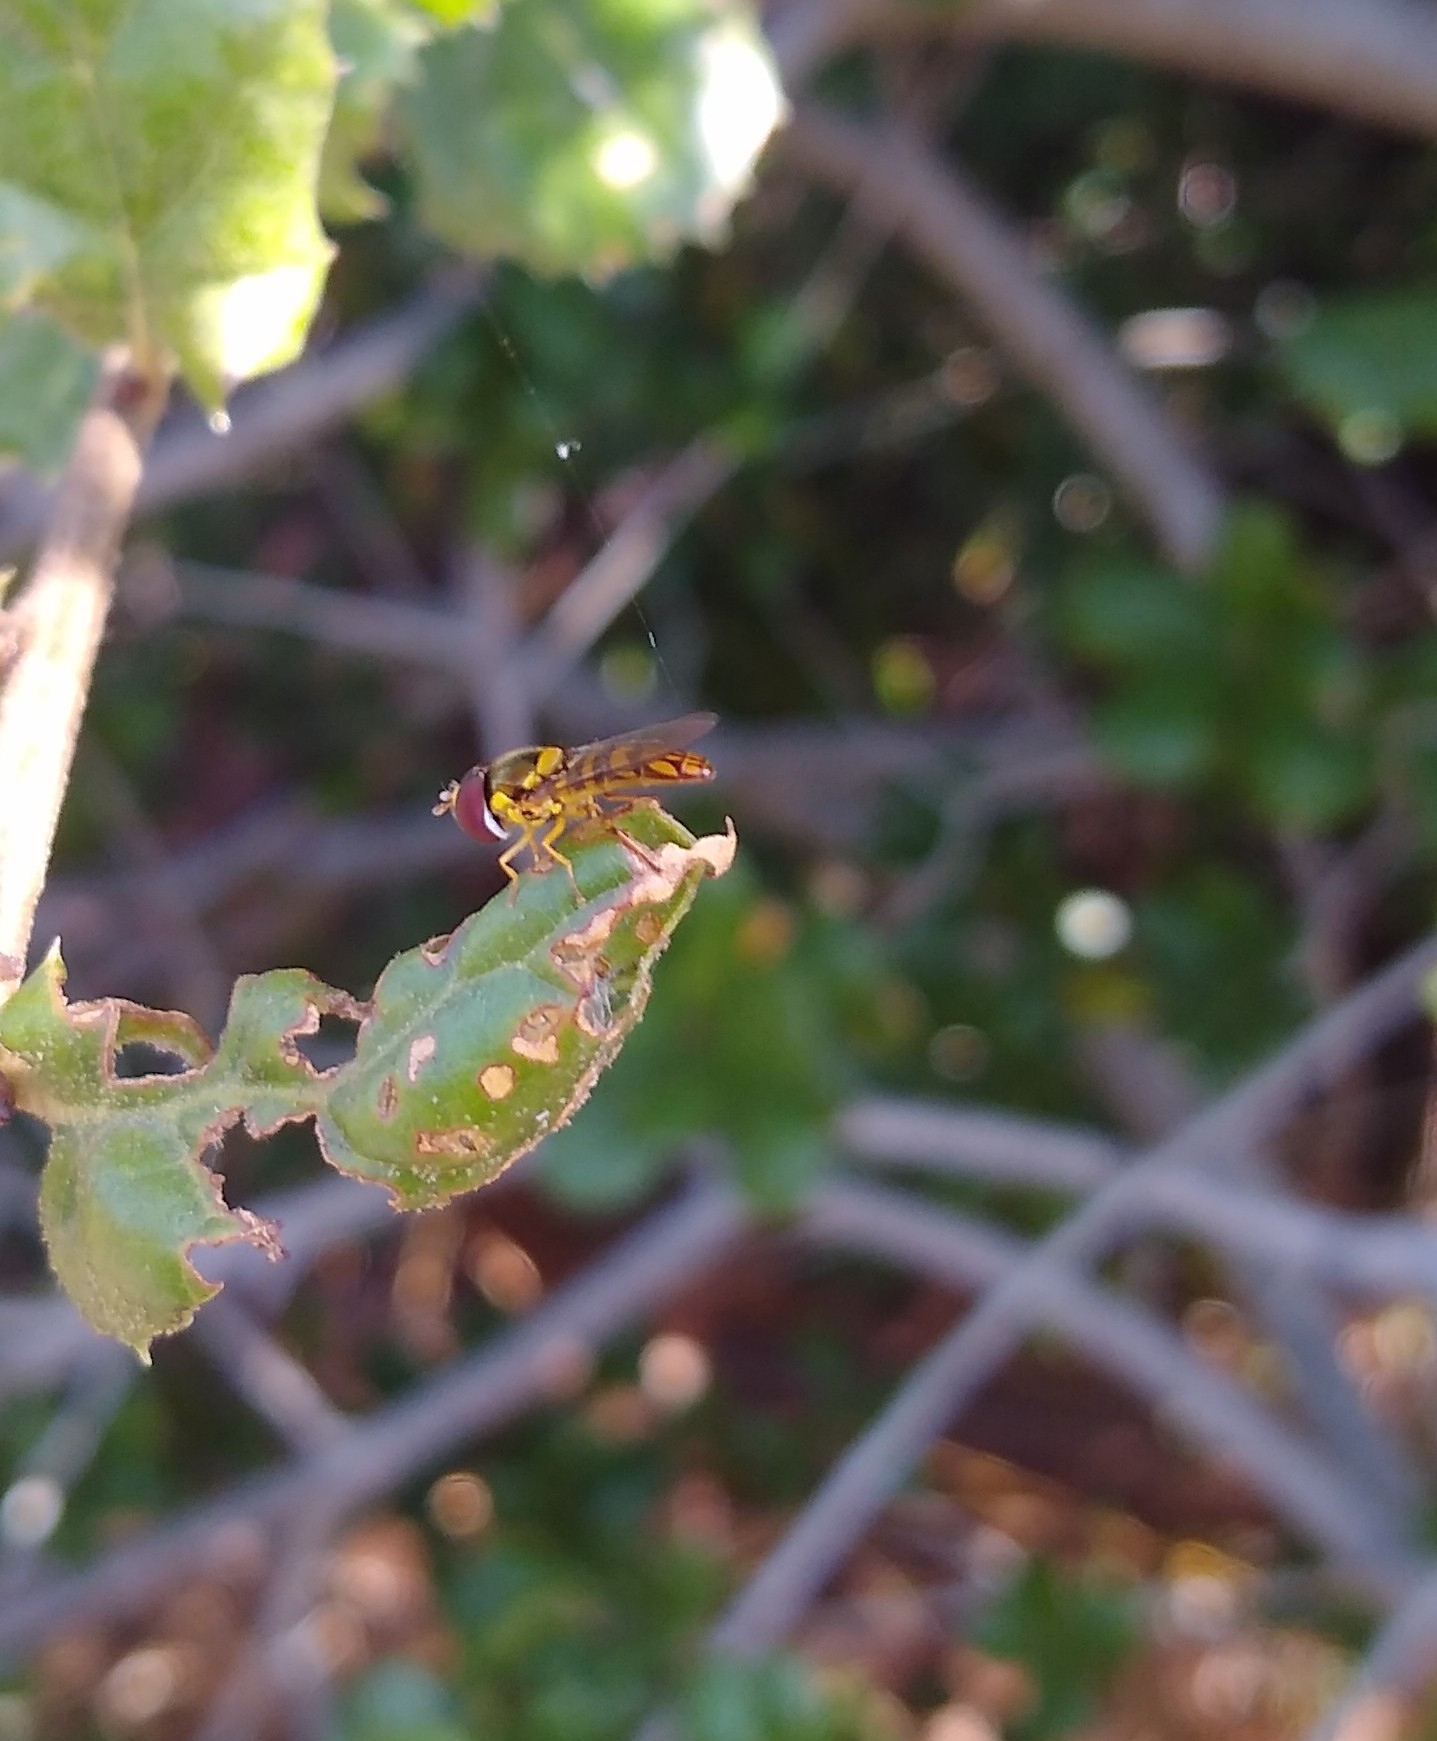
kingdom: Animalia
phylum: Arthropoda
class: Insecta
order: Diptera
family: Syrphidae
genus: Allograpta
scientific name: Allograpta obliqua
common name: Common oblique syrphid
